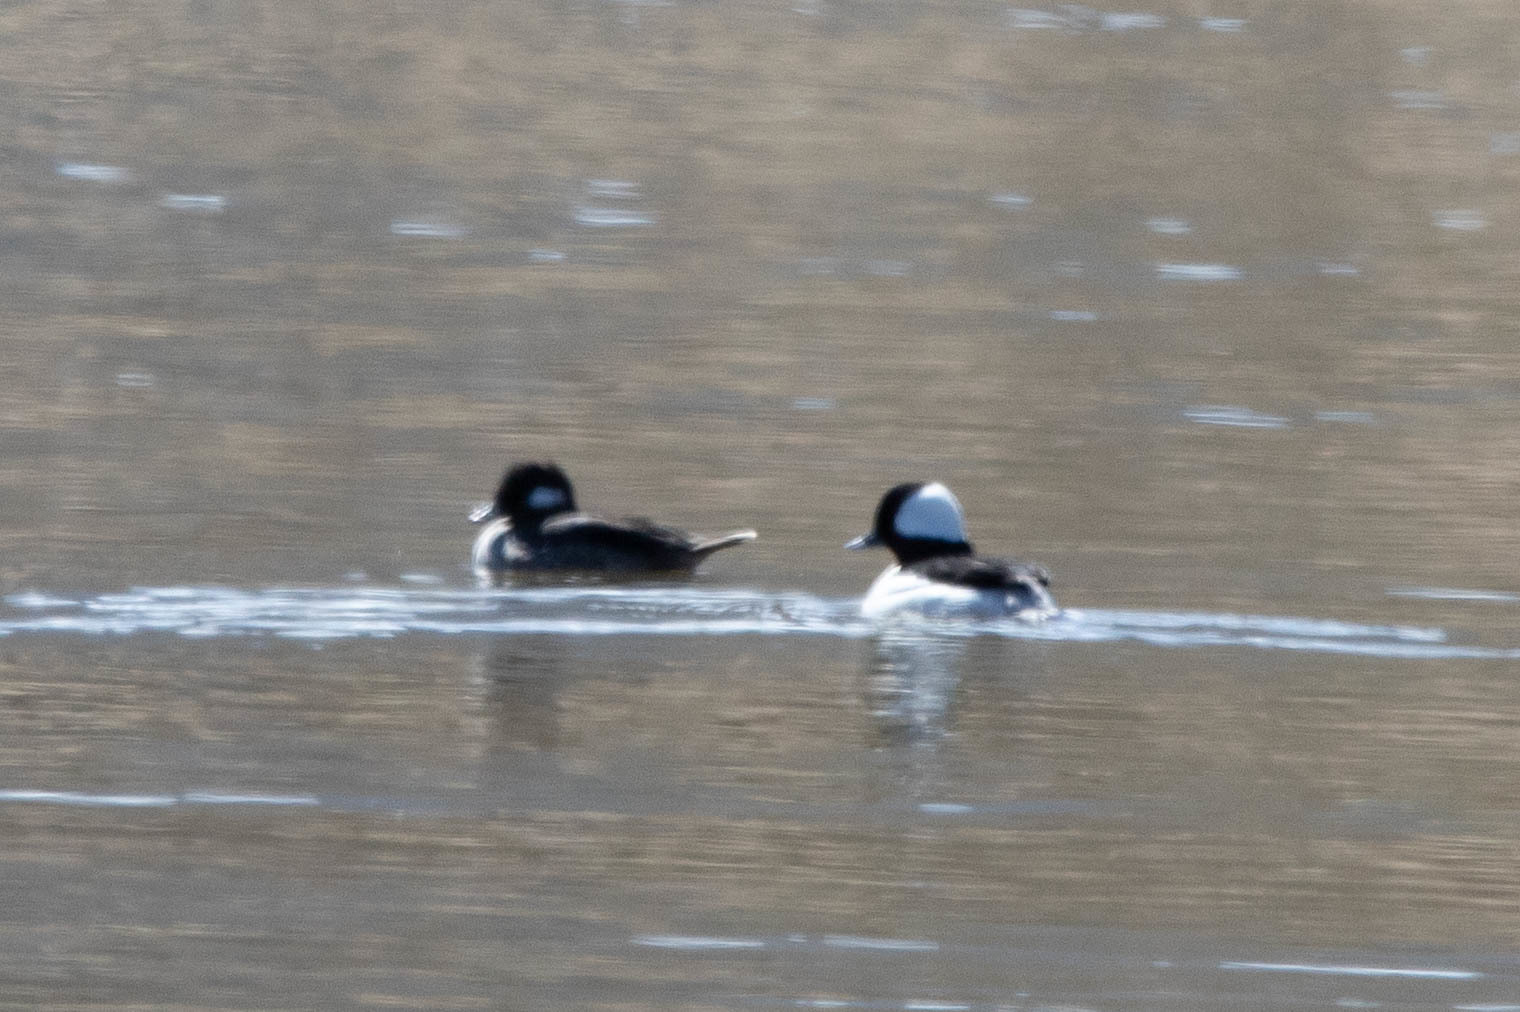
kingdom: Animalia
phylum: Chordata
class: Aves
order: Anseriformes
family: Anatidae
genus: Bucephala
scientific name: Bucephala albeola
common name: Bufflehead
